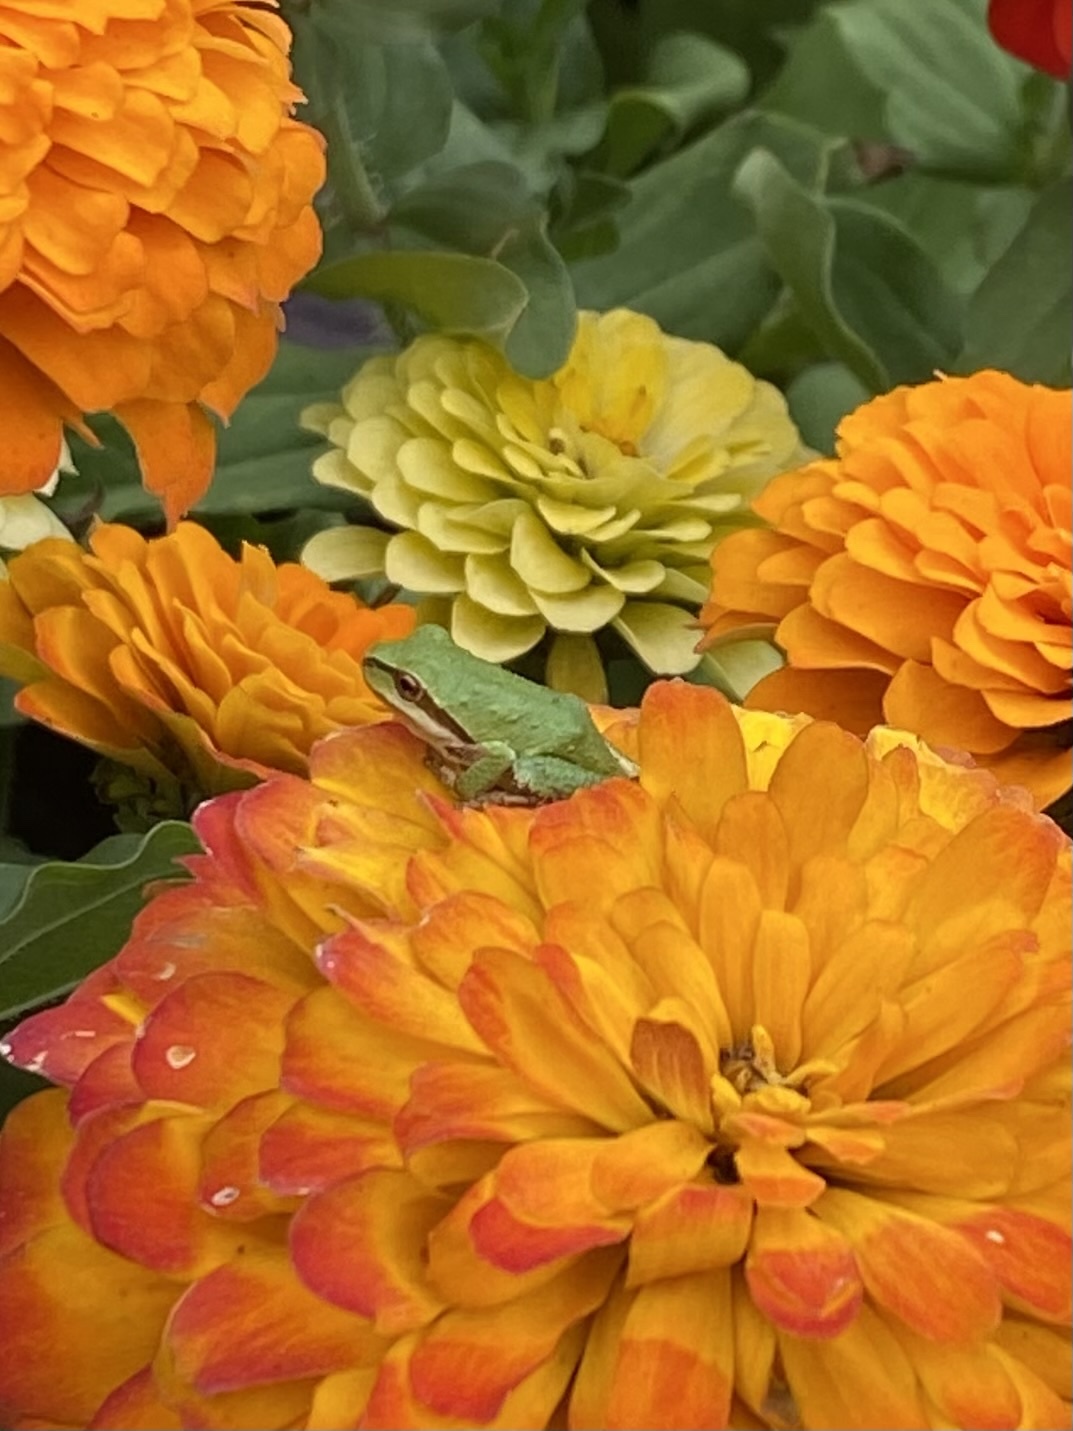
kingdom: Animalia
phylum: Chordata
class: Amphibia
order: Anura
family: Hylidae
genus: Pseudacris
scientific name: Pseudacris regilla
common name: Pacific chorus frog
